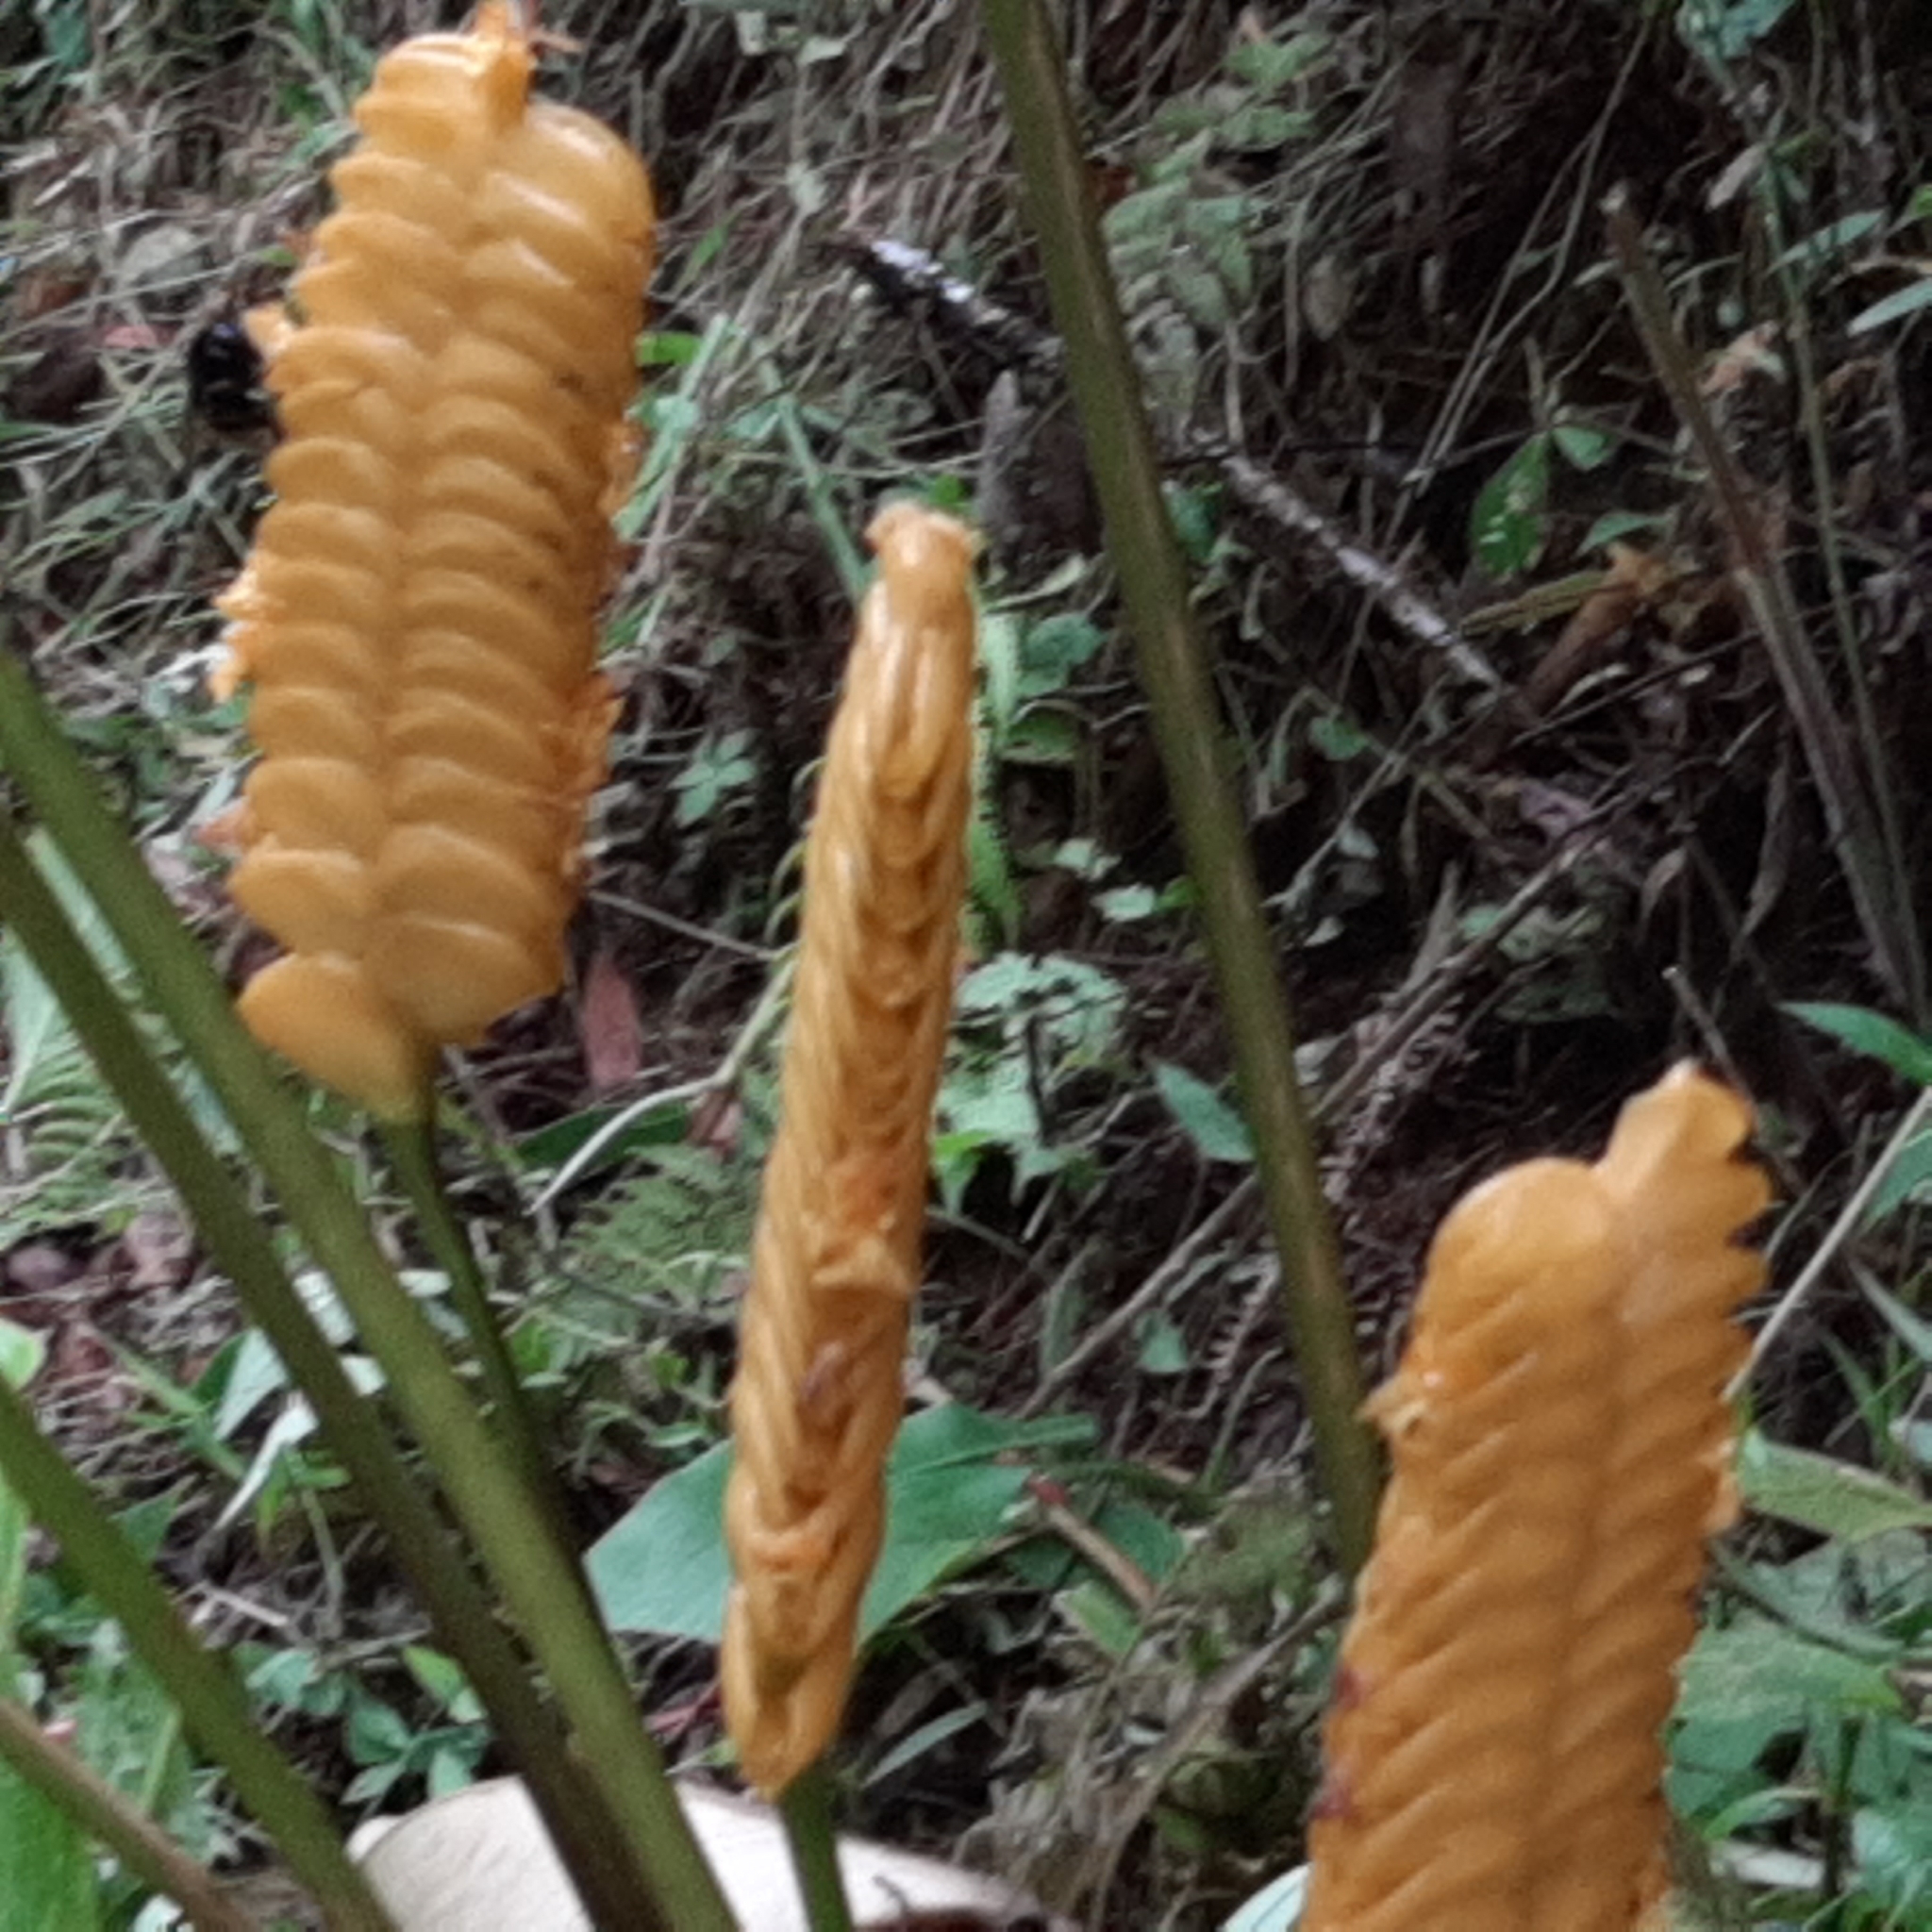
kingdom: Plantae
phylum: Tracheophyta
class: Liliopsida
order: Zingiberales
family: Marantaceae
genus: Calathea
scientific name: Calathea crotalifera
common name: Rattlesnake plant
